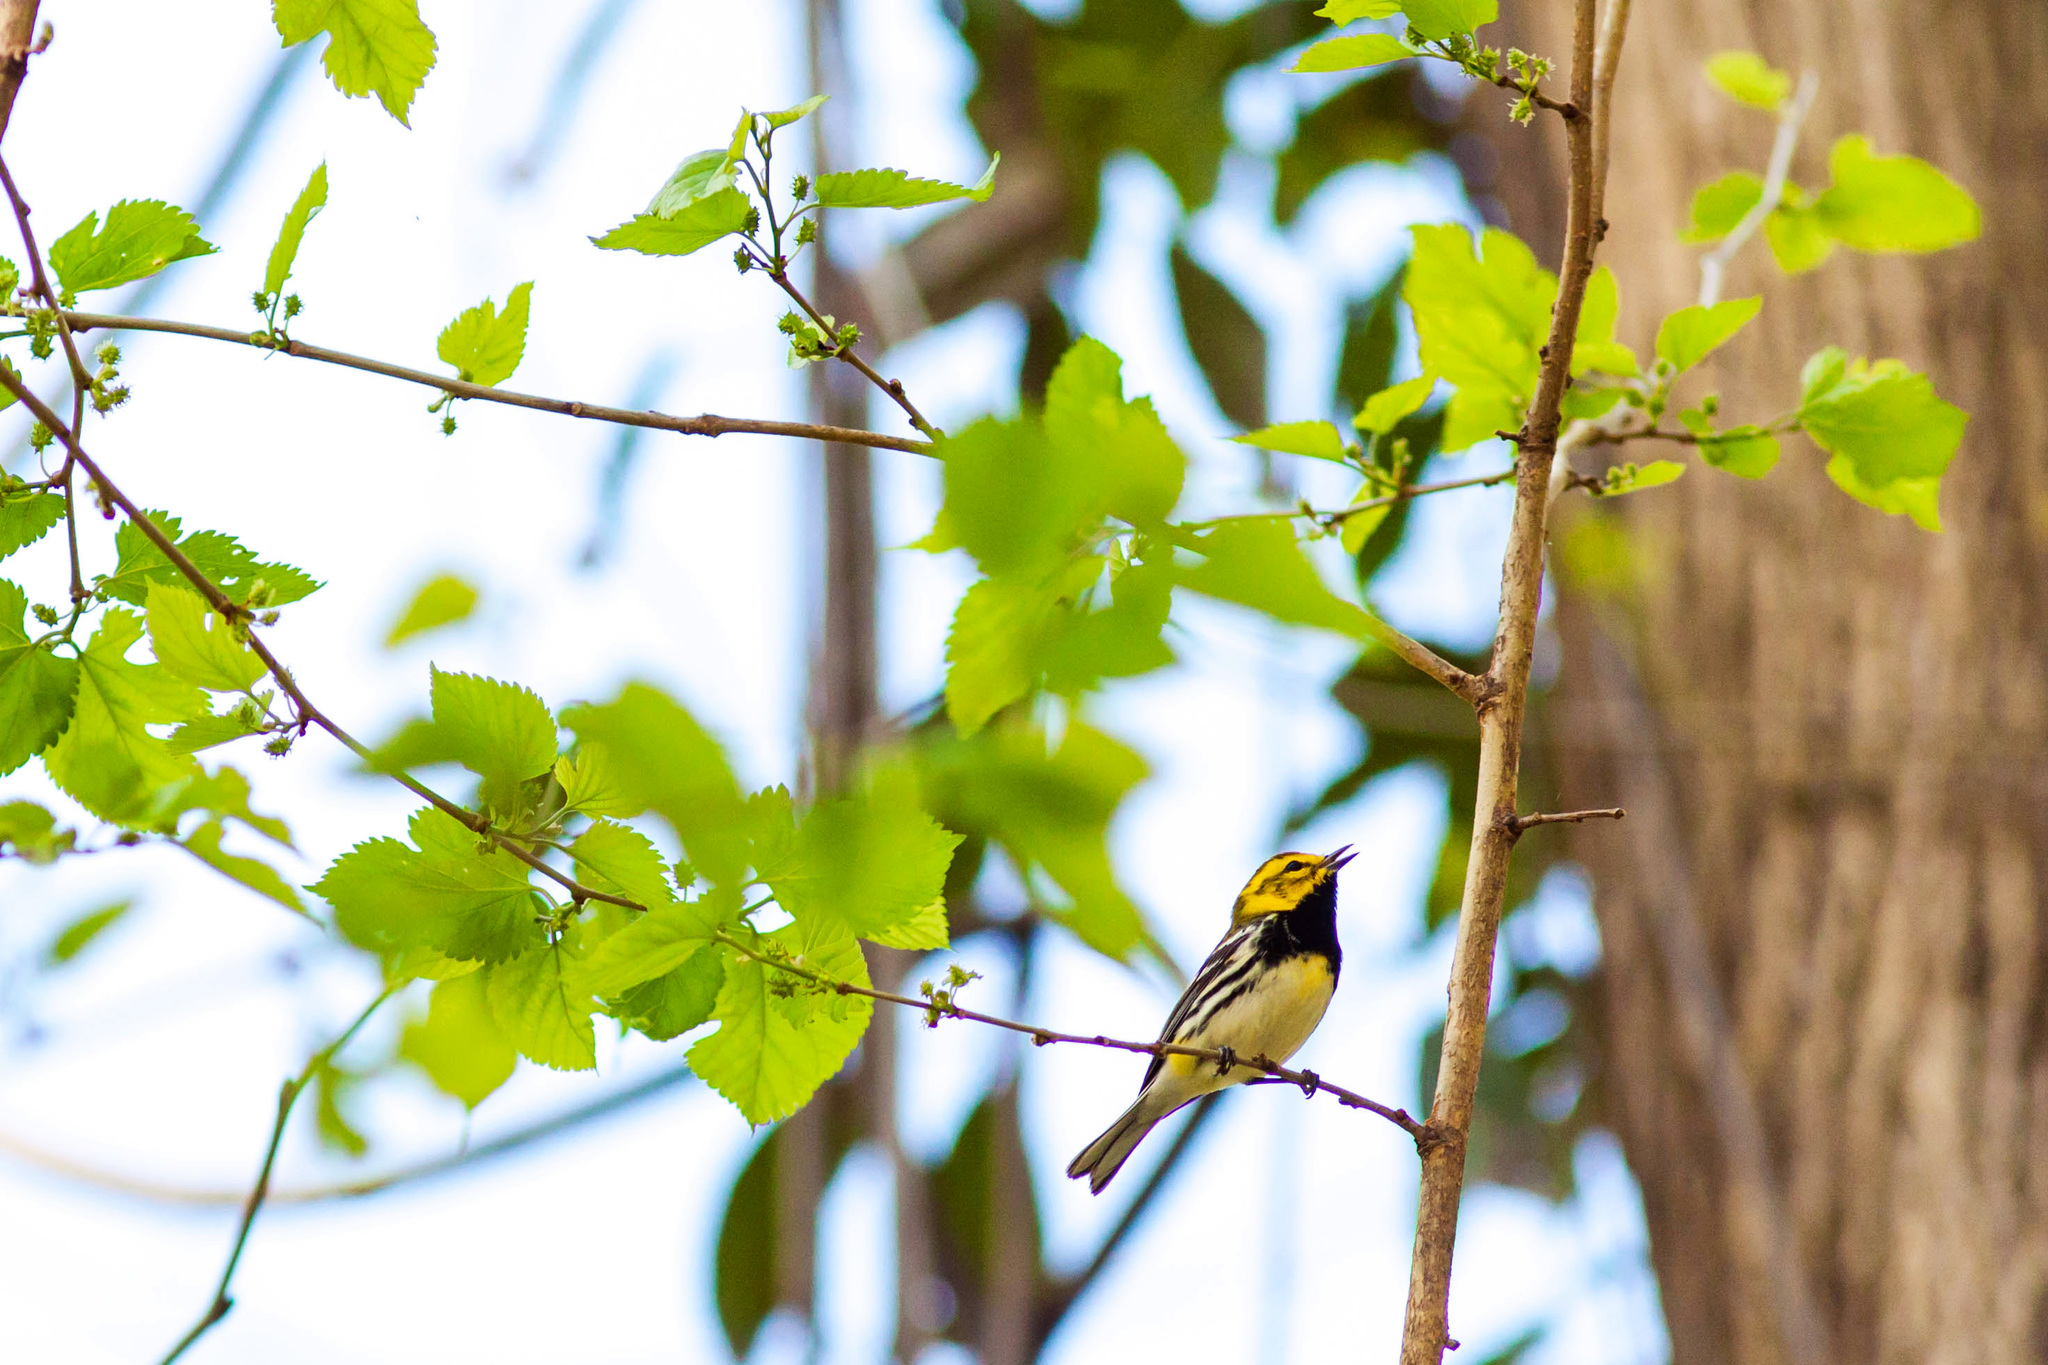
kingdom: Animalia
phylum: Chordata
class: Aves
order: Passeriformes
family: Parulidae
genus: Setophaga
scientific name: Setophaga virens
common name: Black-throated green warbler
